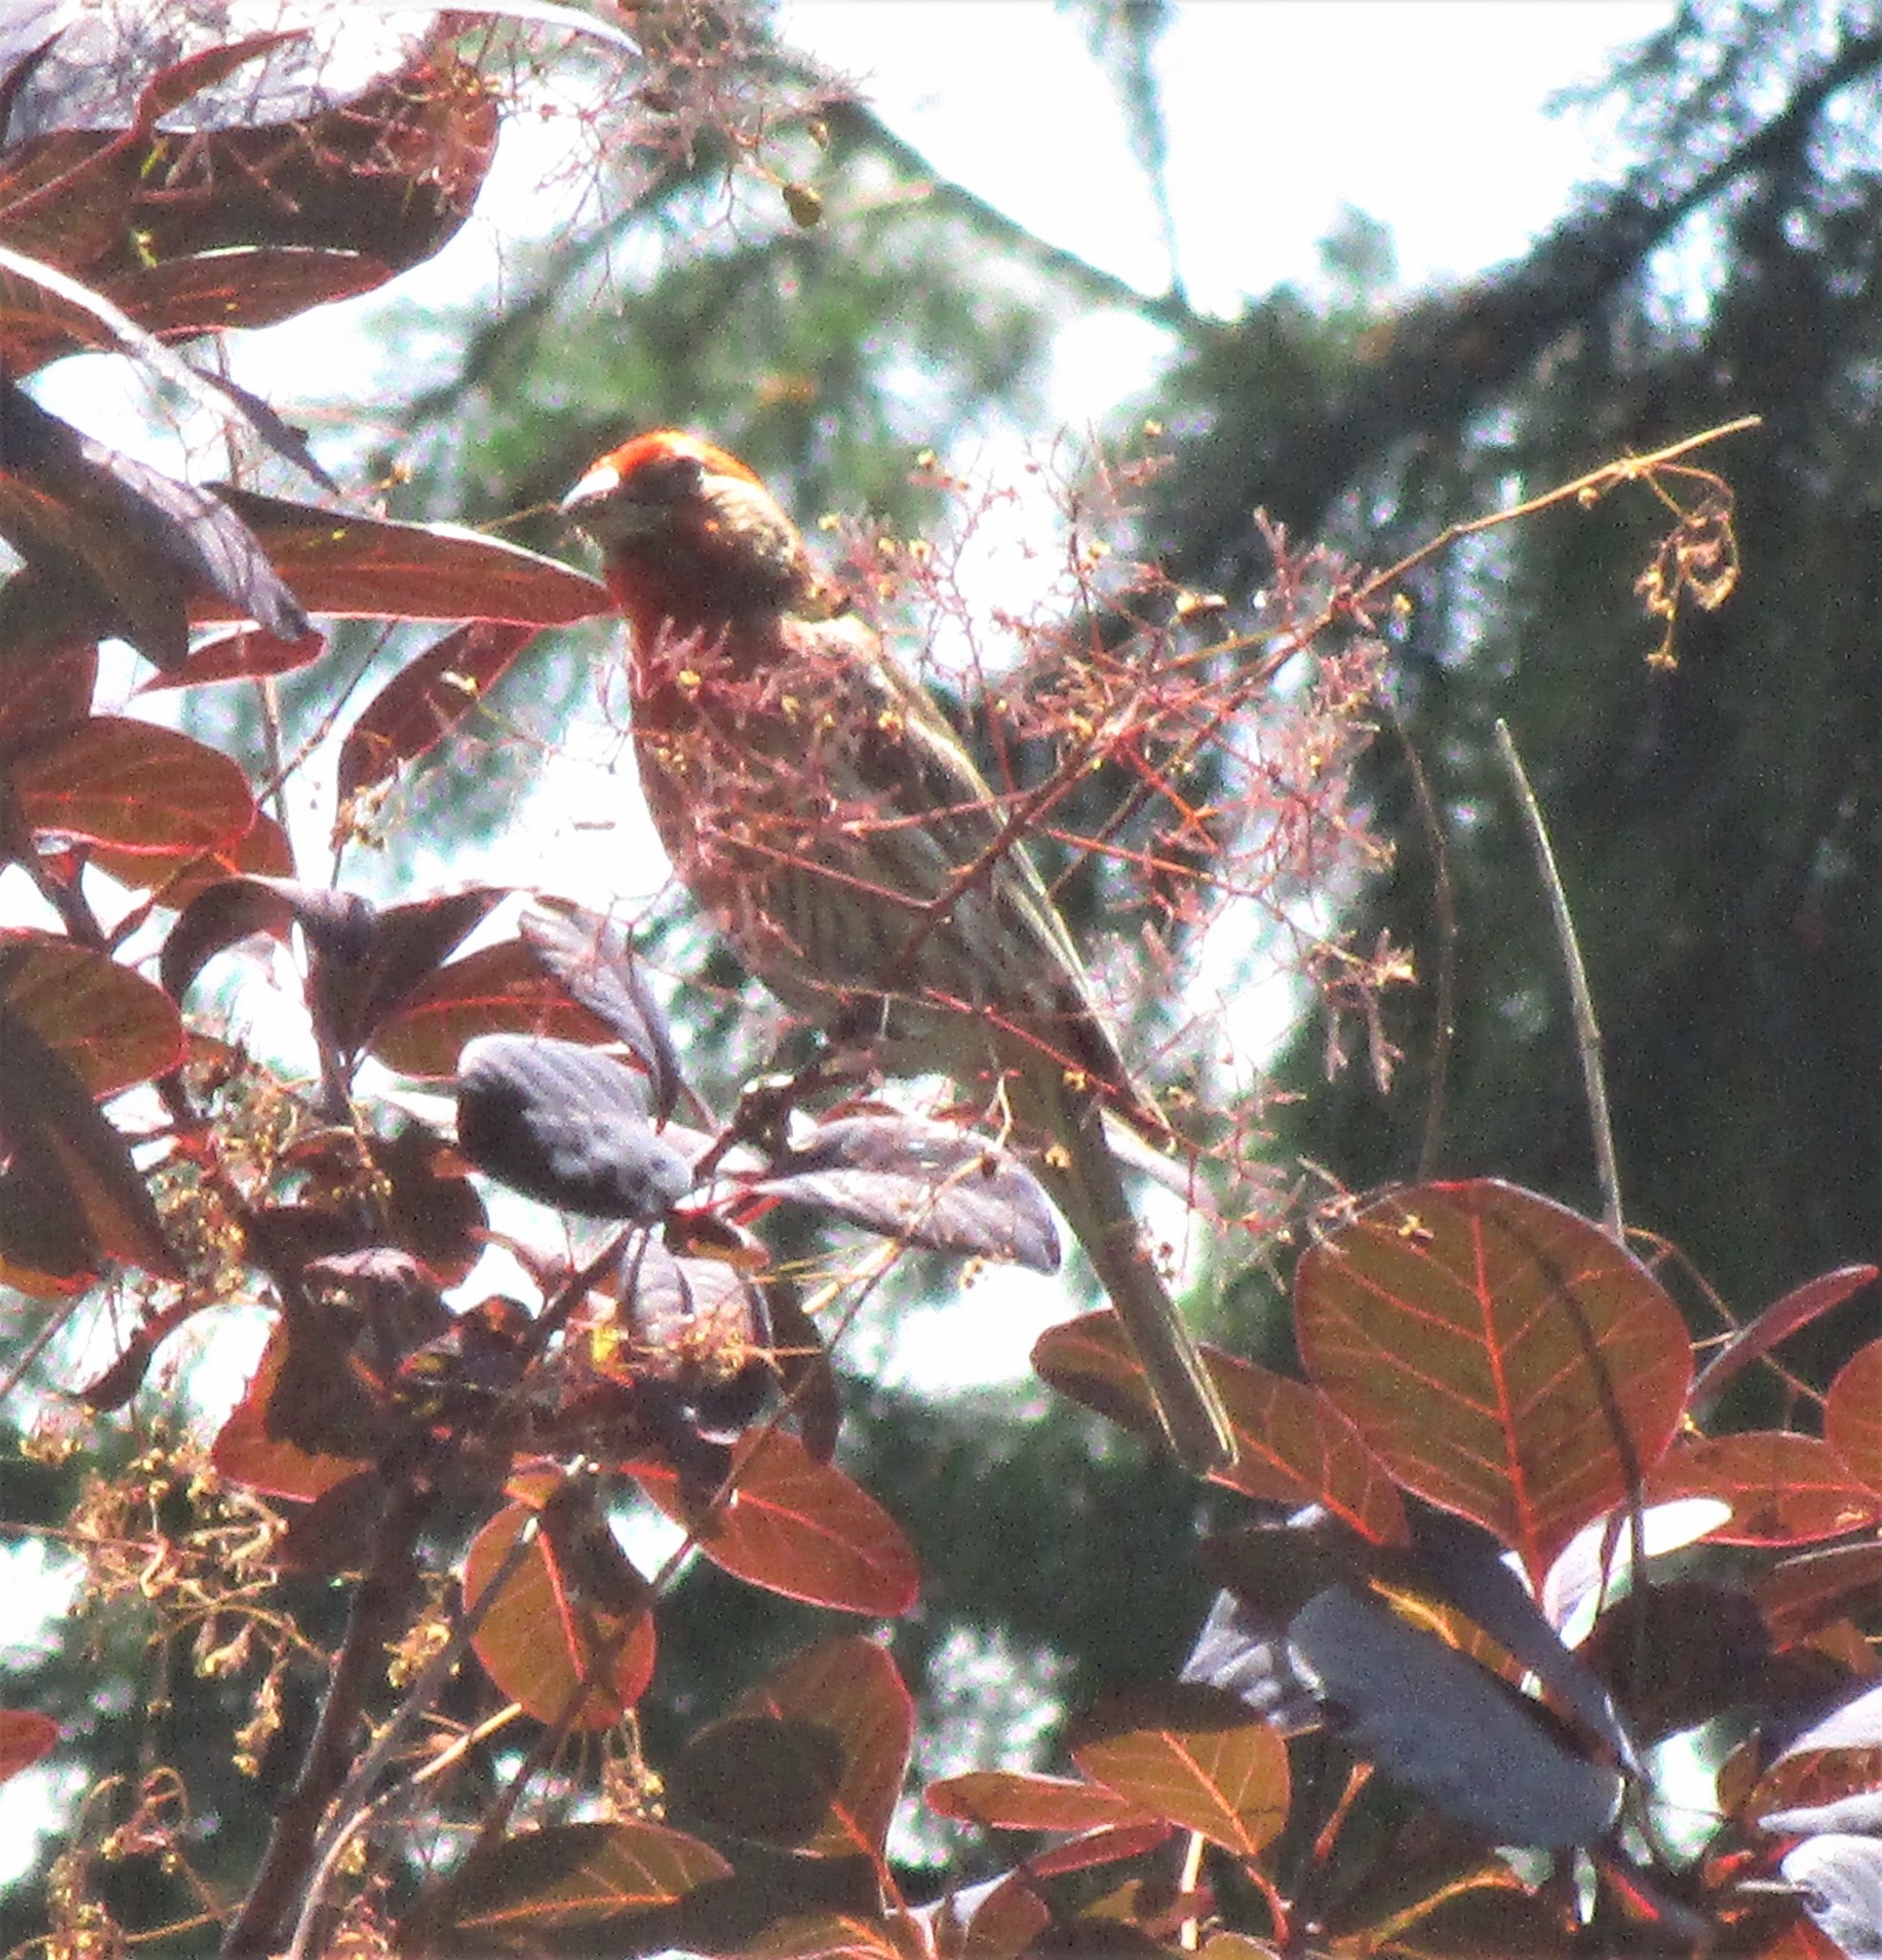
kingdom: Animalia
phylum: Chordata
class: Aves
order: Passeriformes
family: Fringillidae
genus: Haemorhous
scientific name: Haemorhous mexicanus
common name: House finch
